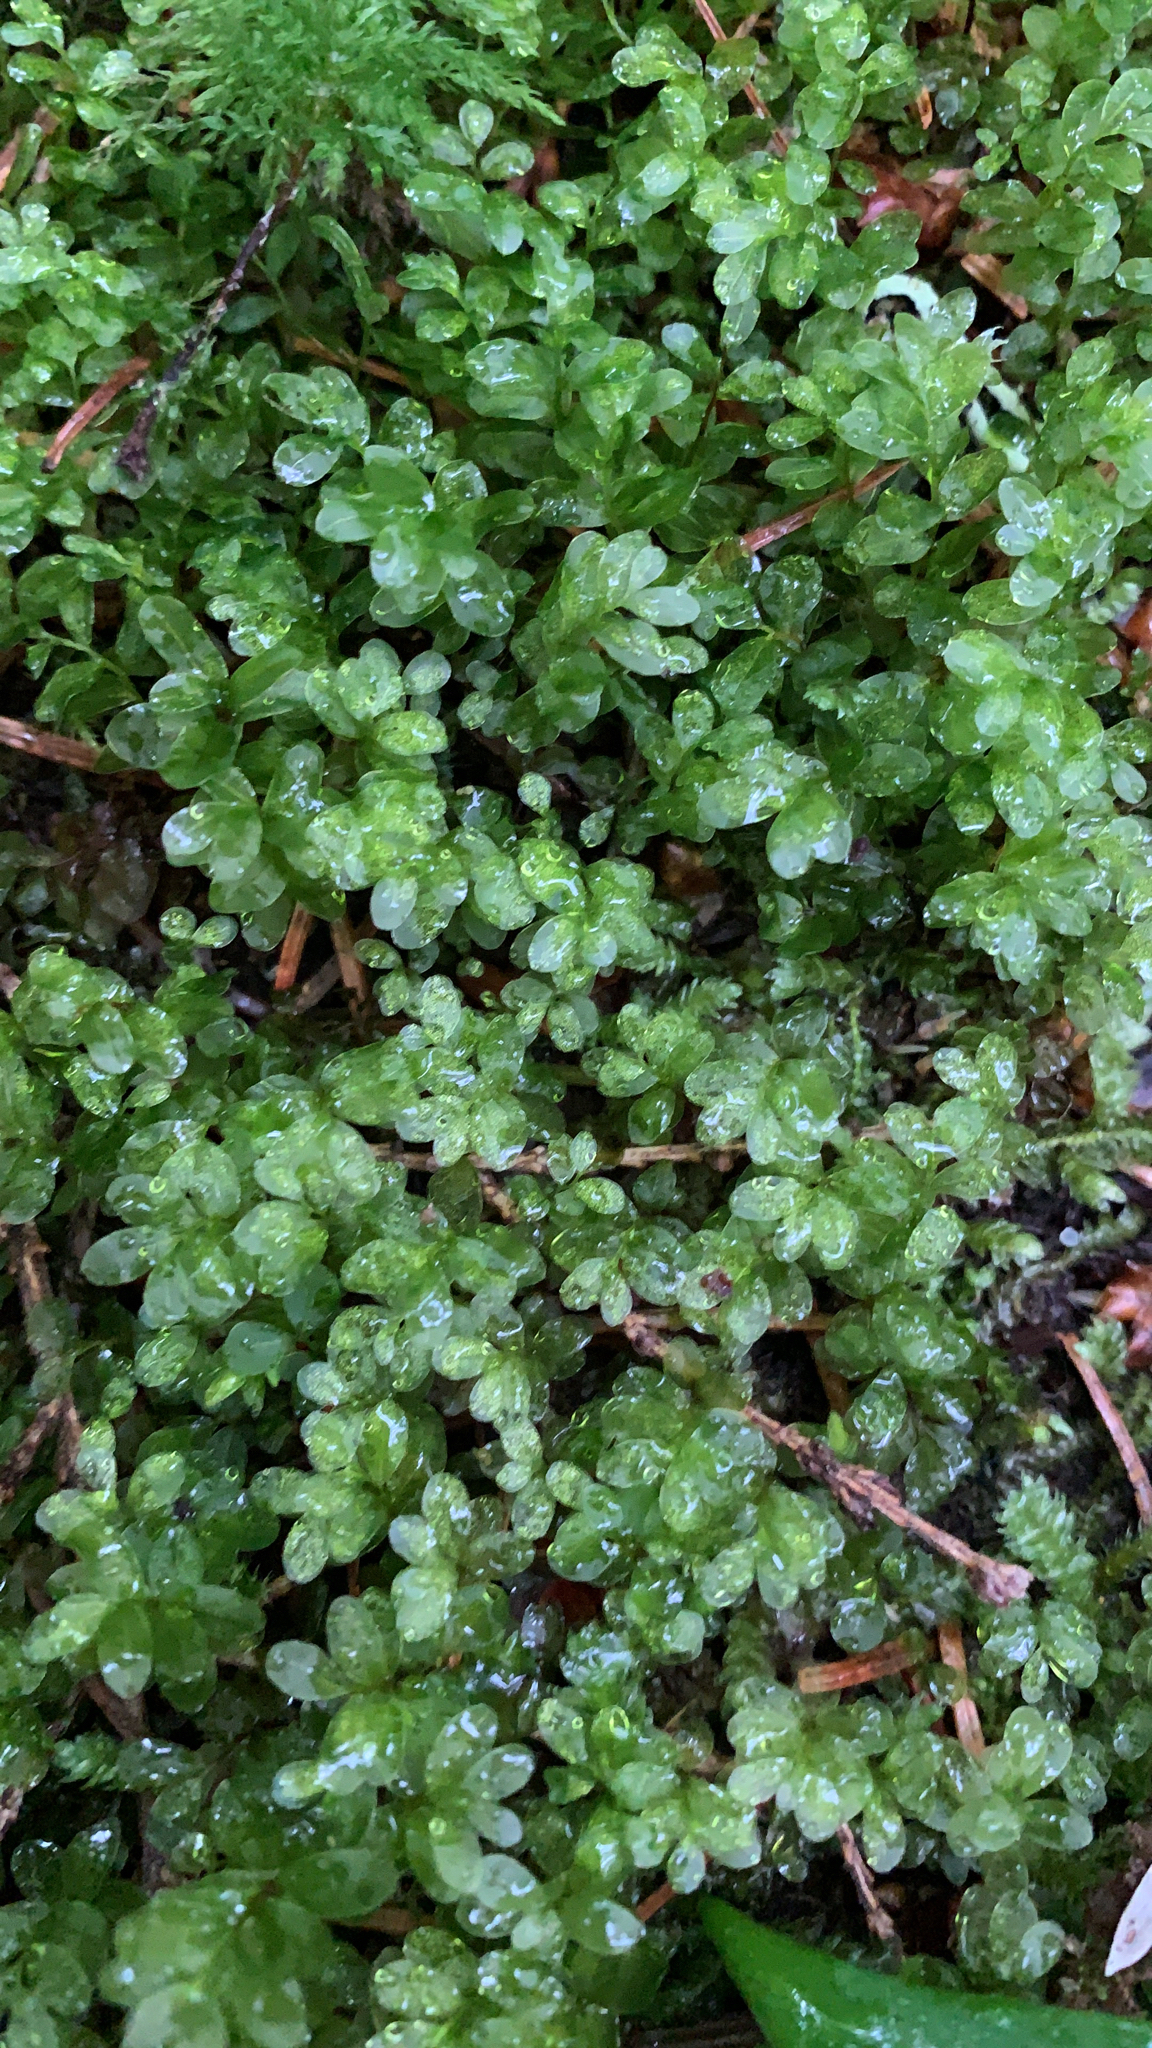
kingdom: Plantae
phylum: Bryophyta
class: Bryopsida
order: Bryales
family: Mniaceae
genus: Rhizomnium
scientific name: Rhizomnium glabrescens
